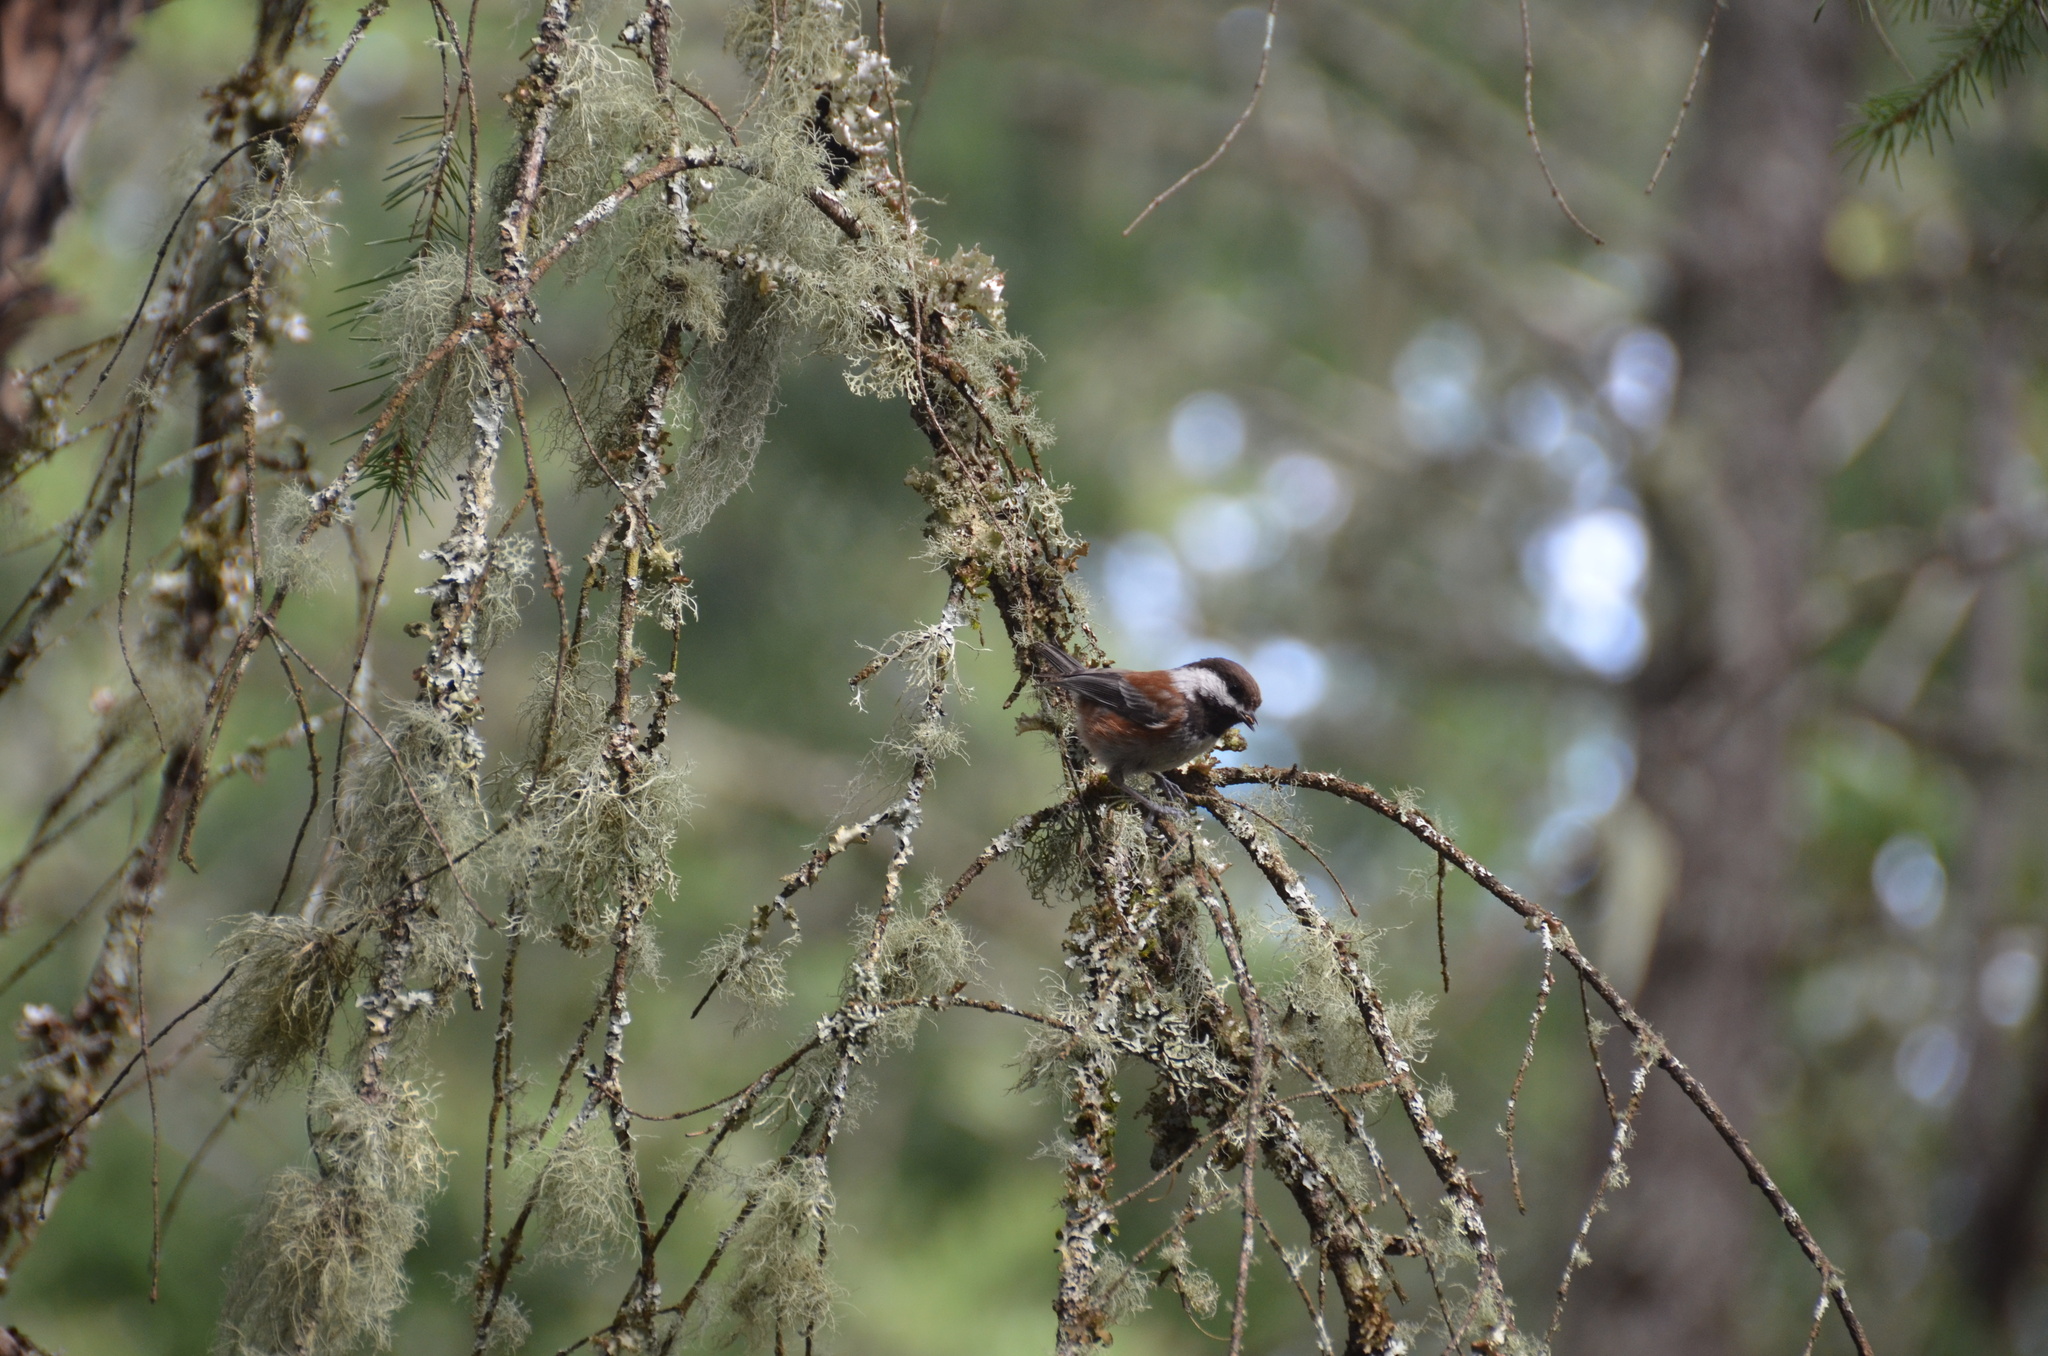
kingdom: Animalia
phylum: Chordata
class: Aves
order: Passeriformes
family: Paridae
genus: Poecile
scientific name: Poecile rufescens
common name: Chestnut-backed chickadee
